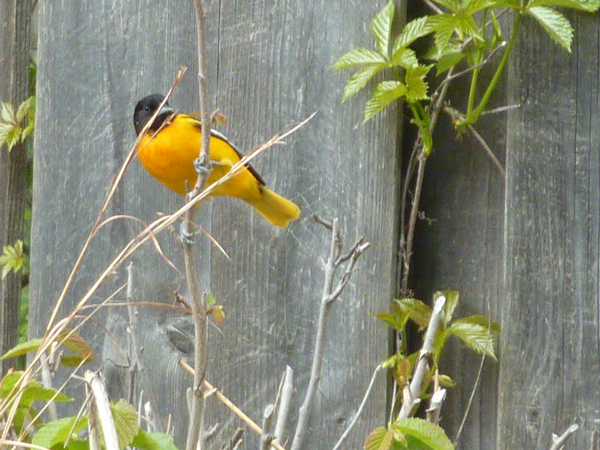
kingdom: Animalia
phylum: Chordata
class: Aves
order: Passeriformes
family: Icteridae
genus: Icterus
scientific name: Icterus galbula
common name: Baltimore oriole
